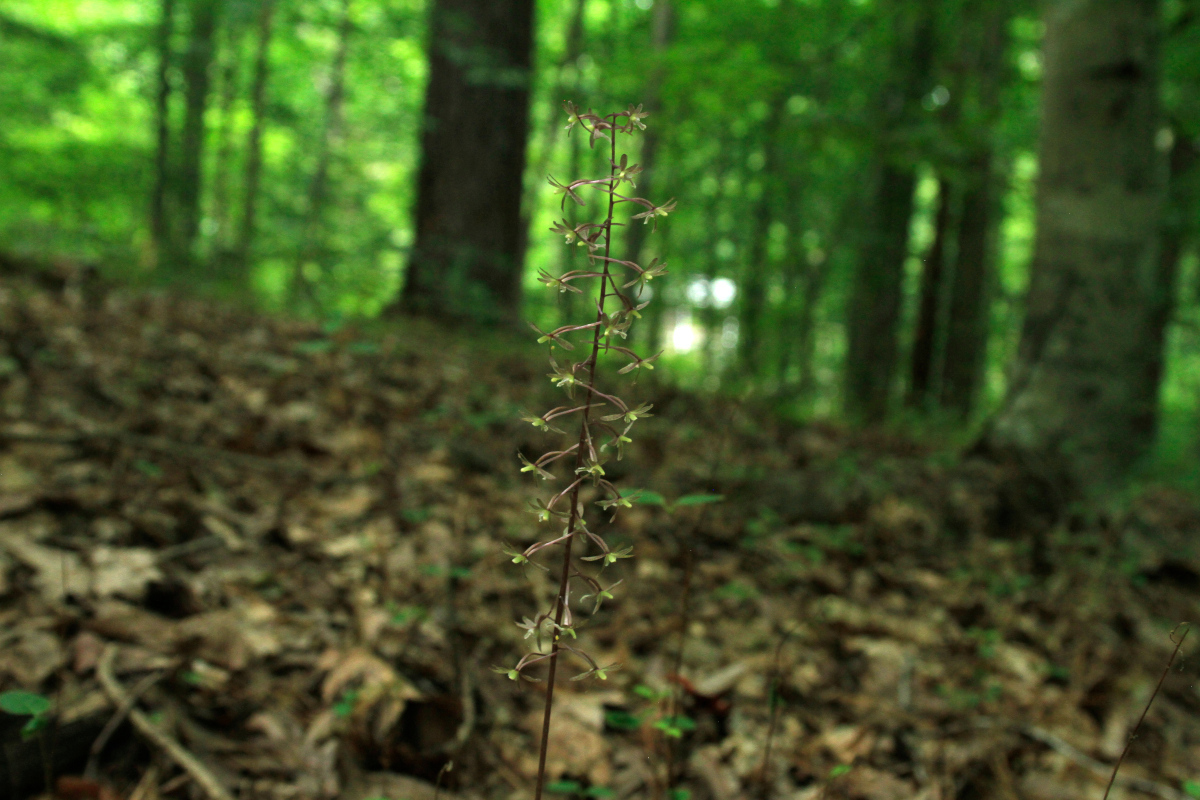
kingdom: Plantae
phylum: Tracheophyta
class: Liliopsida
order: Asparagales
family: Orchidaceae
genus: Tipularia
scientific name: Tipularia discolor
